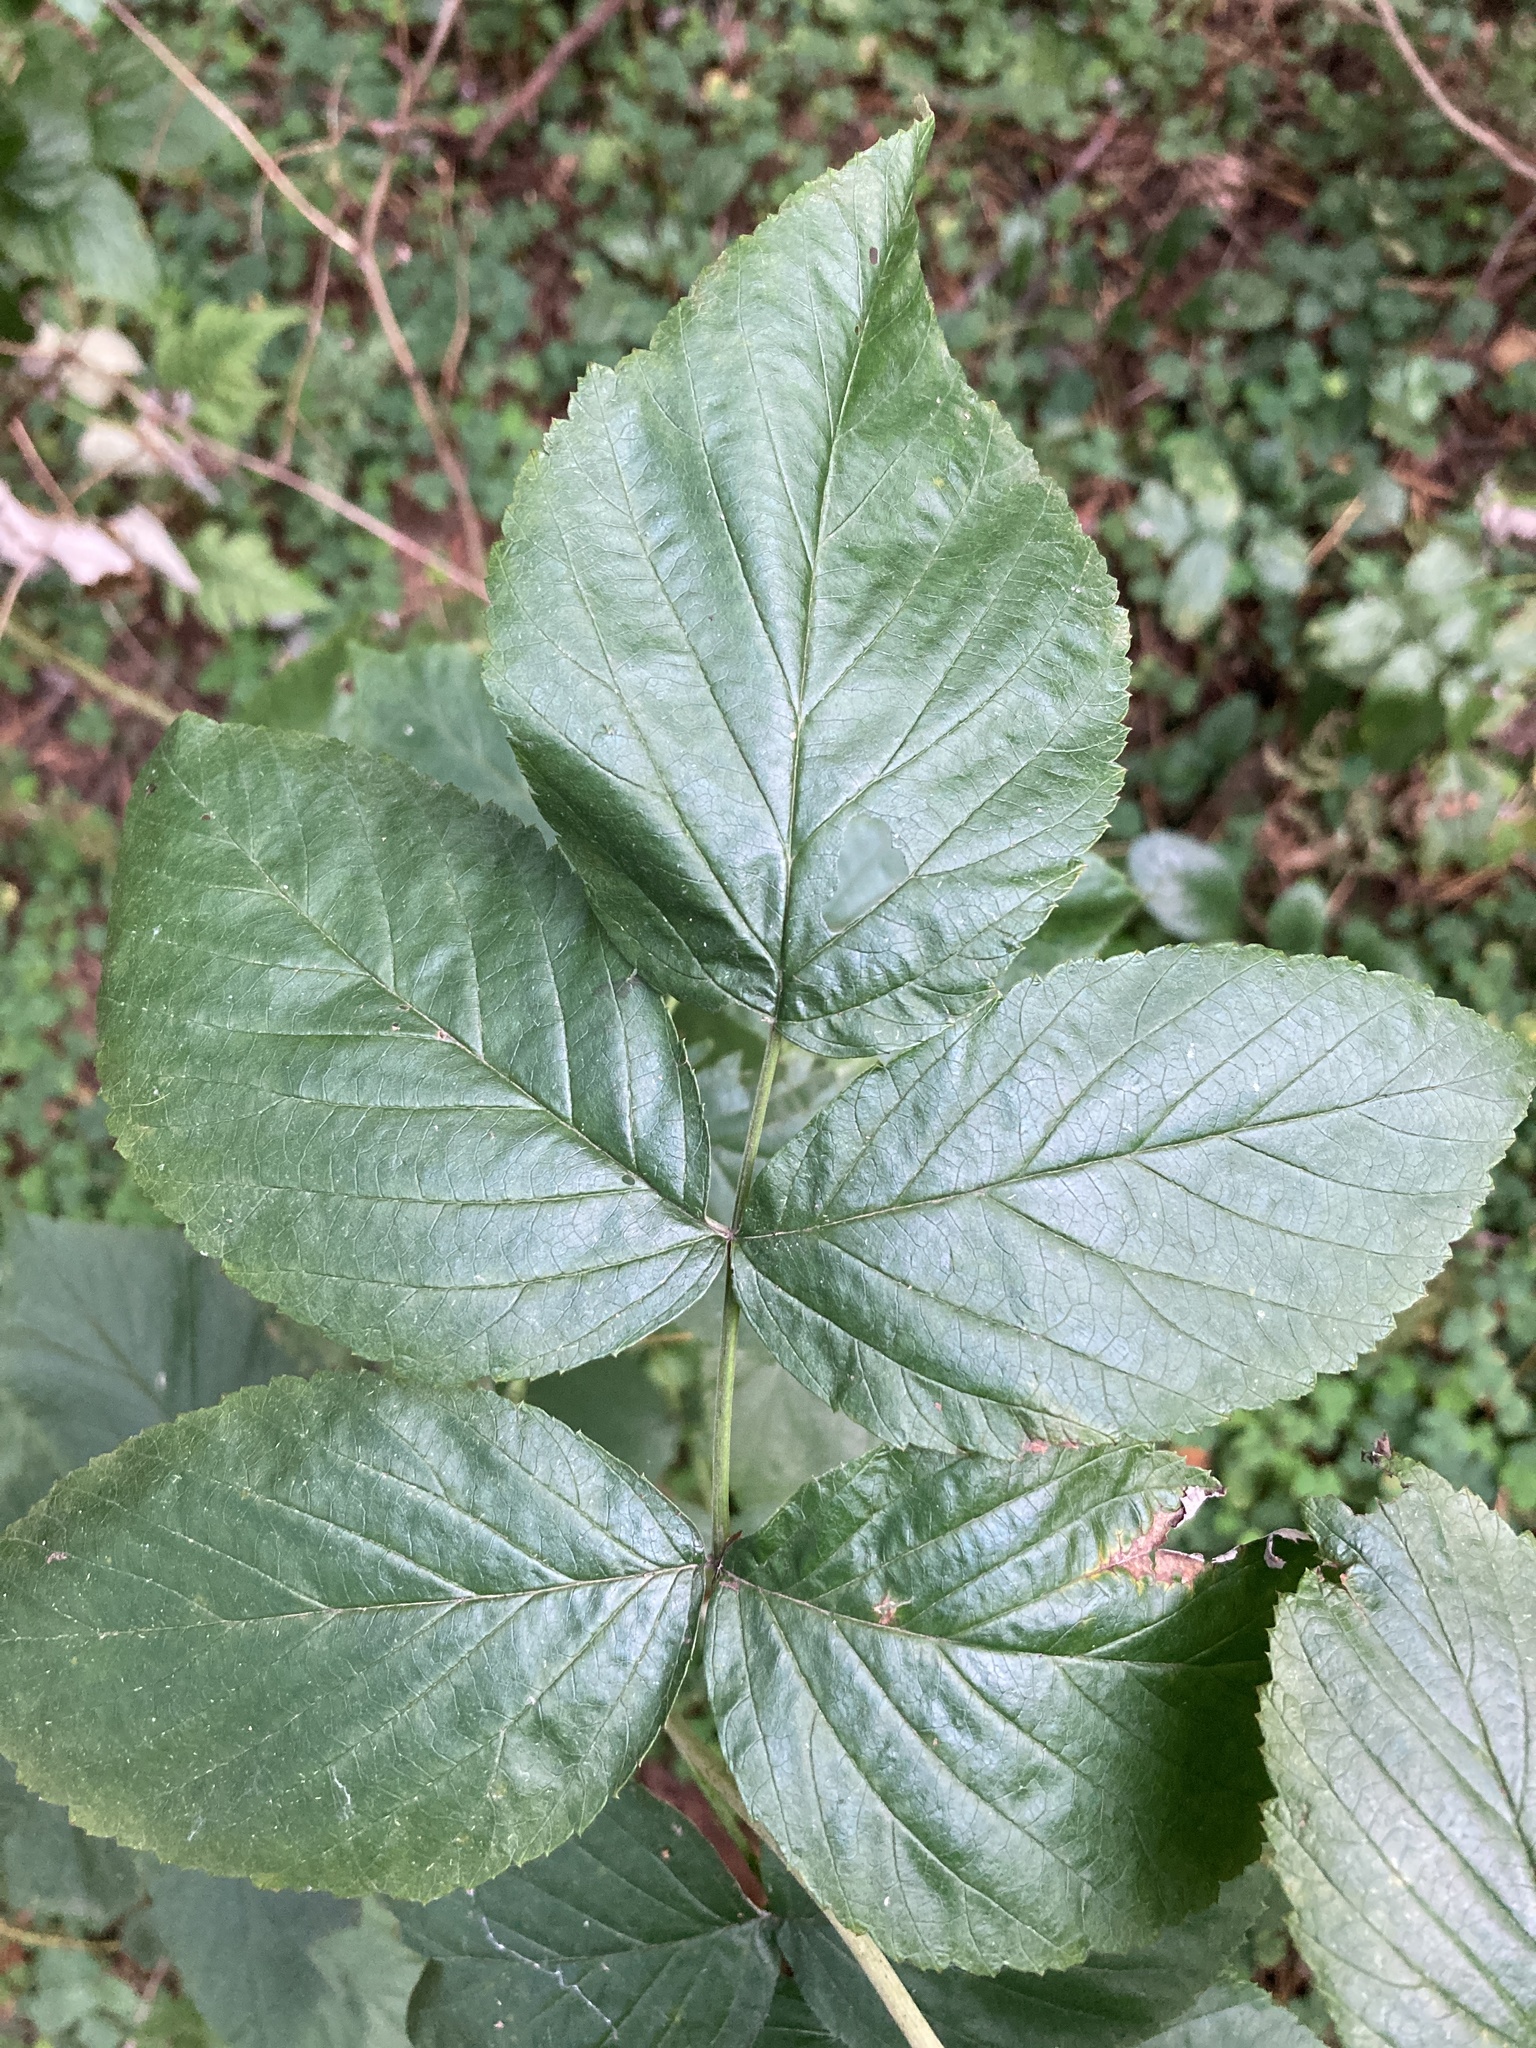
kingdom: Plantae
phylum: Tracheophyta
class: Magnoliopsida
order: Rosales
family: Rosaceae
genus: Rubus
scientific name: Rubus idaeus
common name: Raspberry
